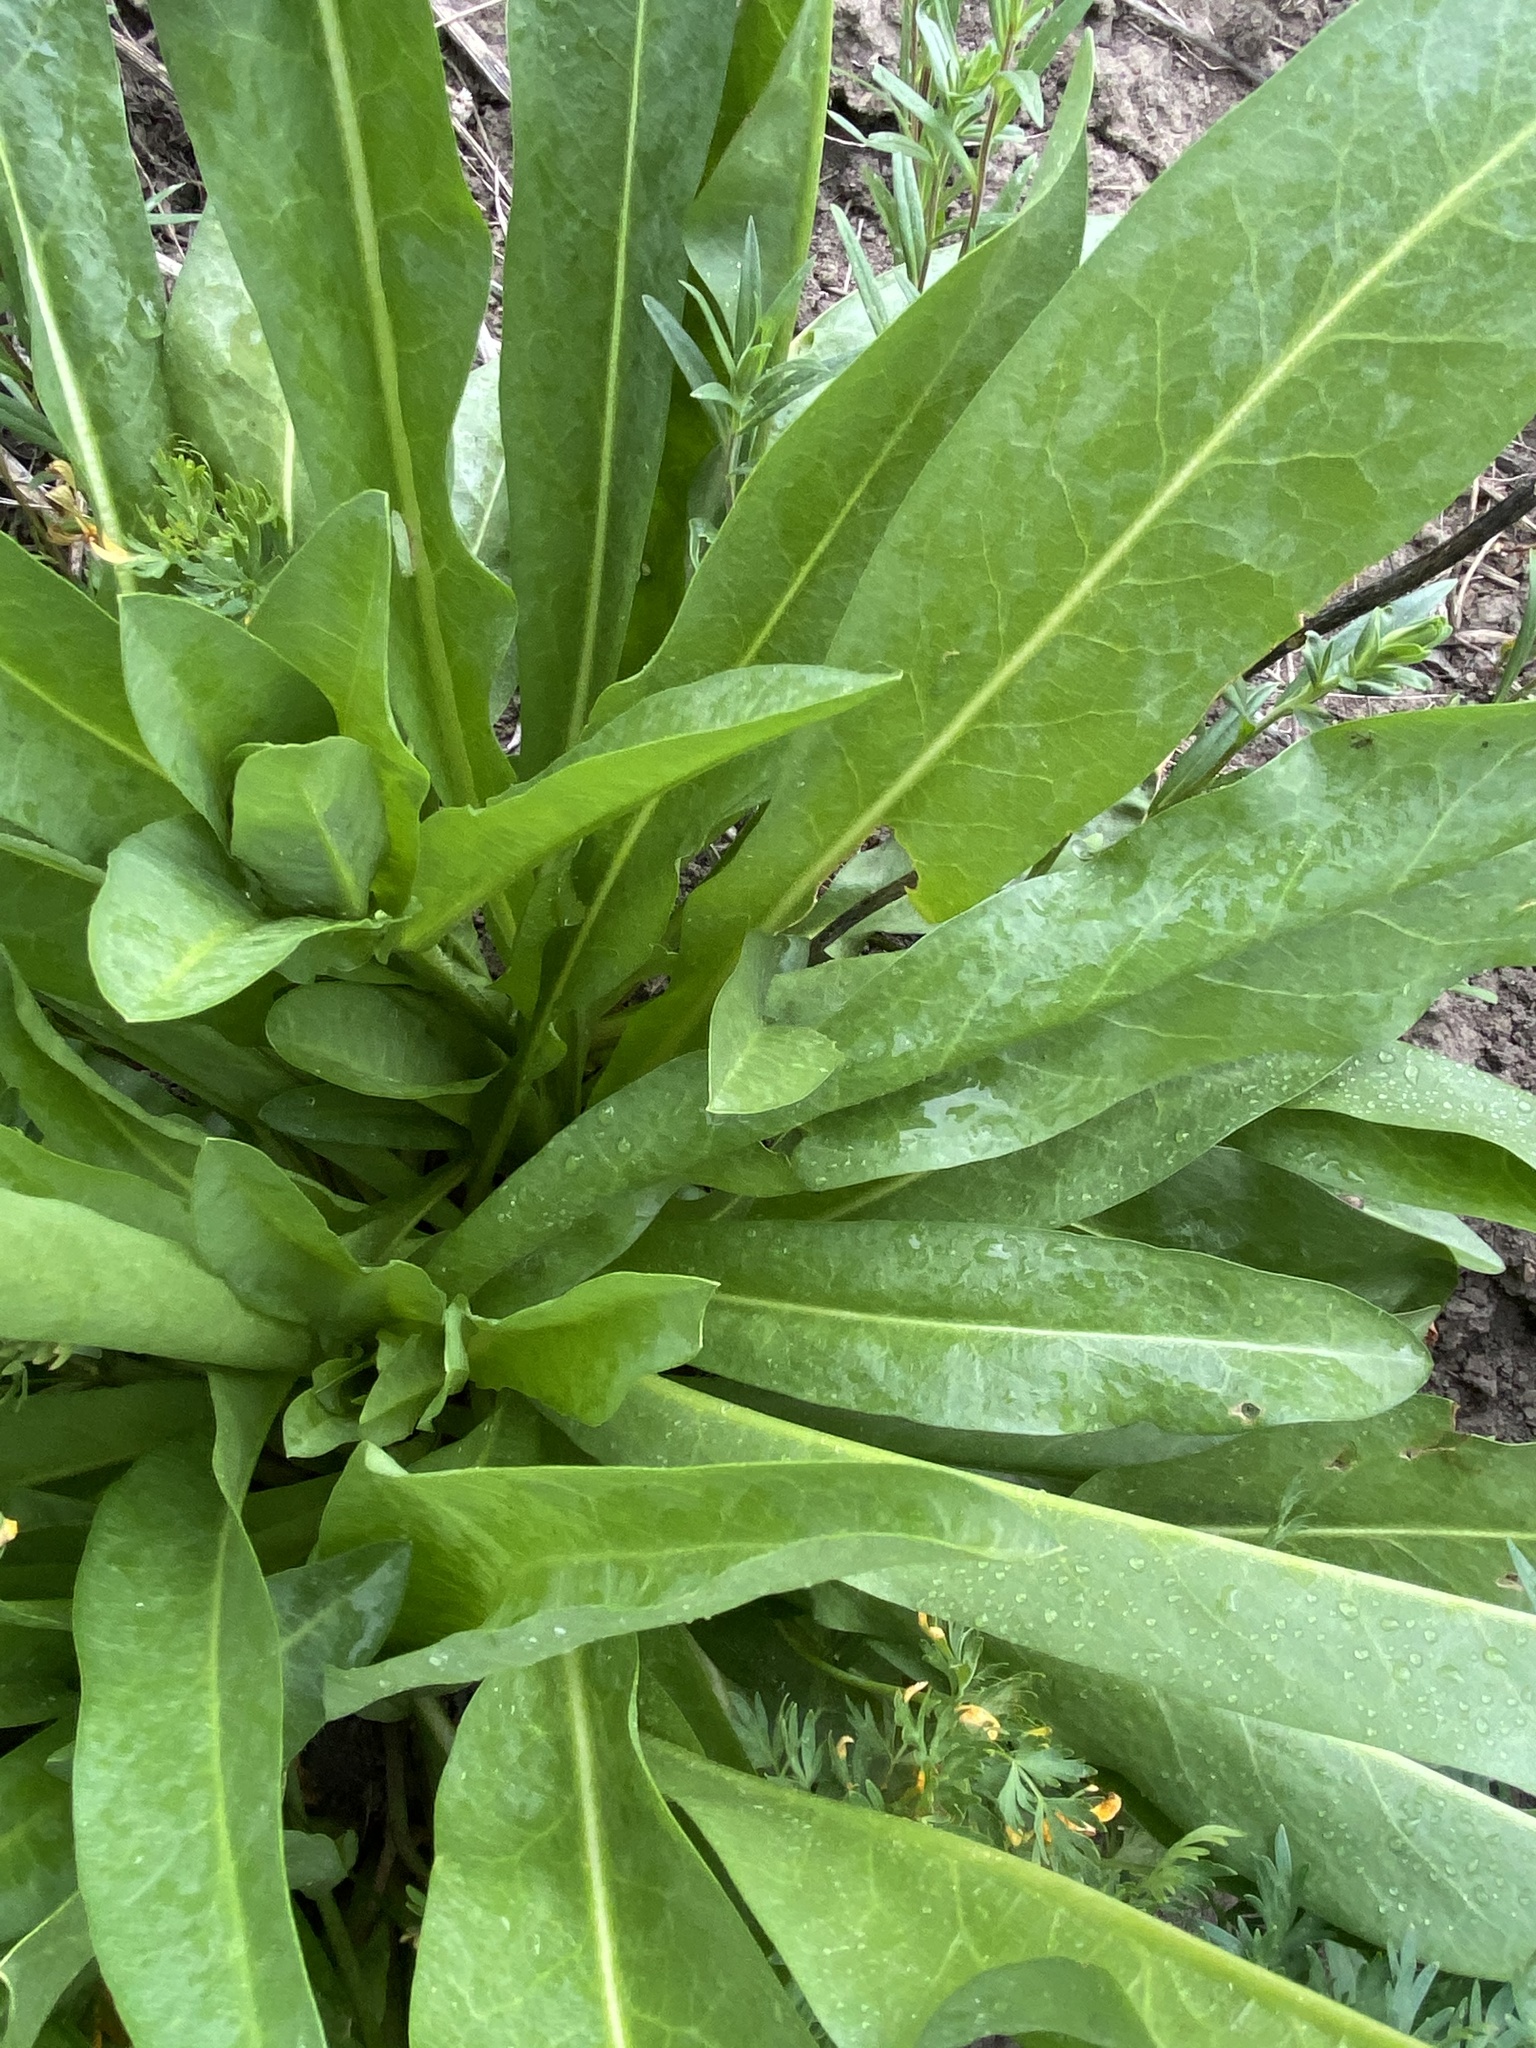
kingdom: Plantae
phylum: Tracheophyta
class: Magnoliopsida
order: Asterales
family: Asteraceae
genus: Wyethia
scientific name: Wyethia amplexicaulis
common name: Northern mule's-ears
